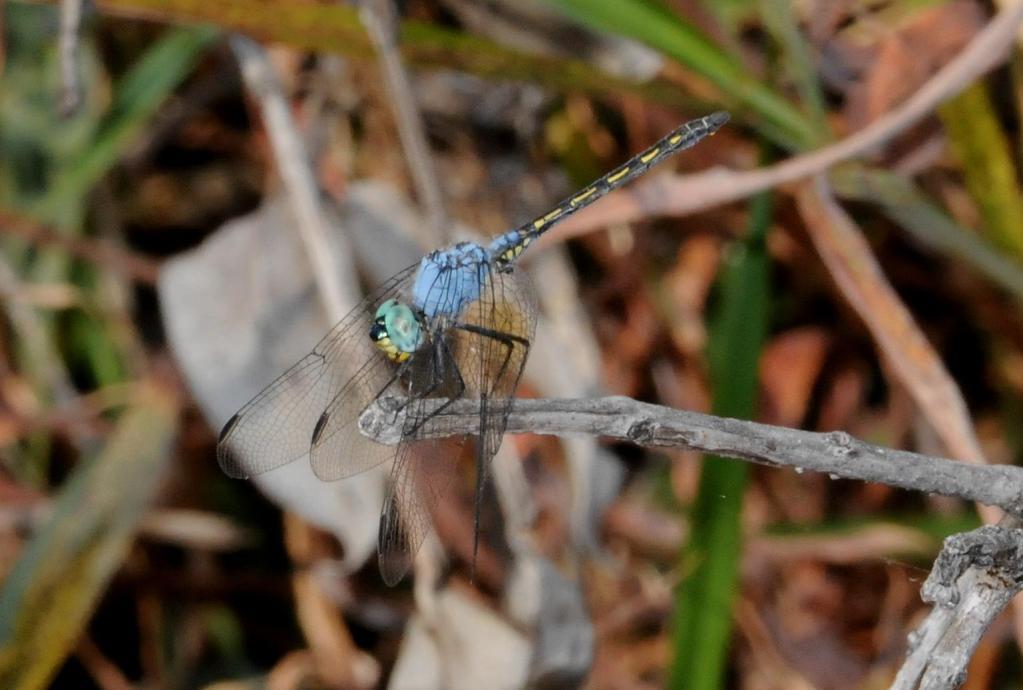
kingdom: Animalia
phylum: Arthropoda
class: Insecta
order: Odonata
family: Libellulidae
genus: Trithemis
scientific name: Trithemis stictica
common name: Jaunty dropwing
